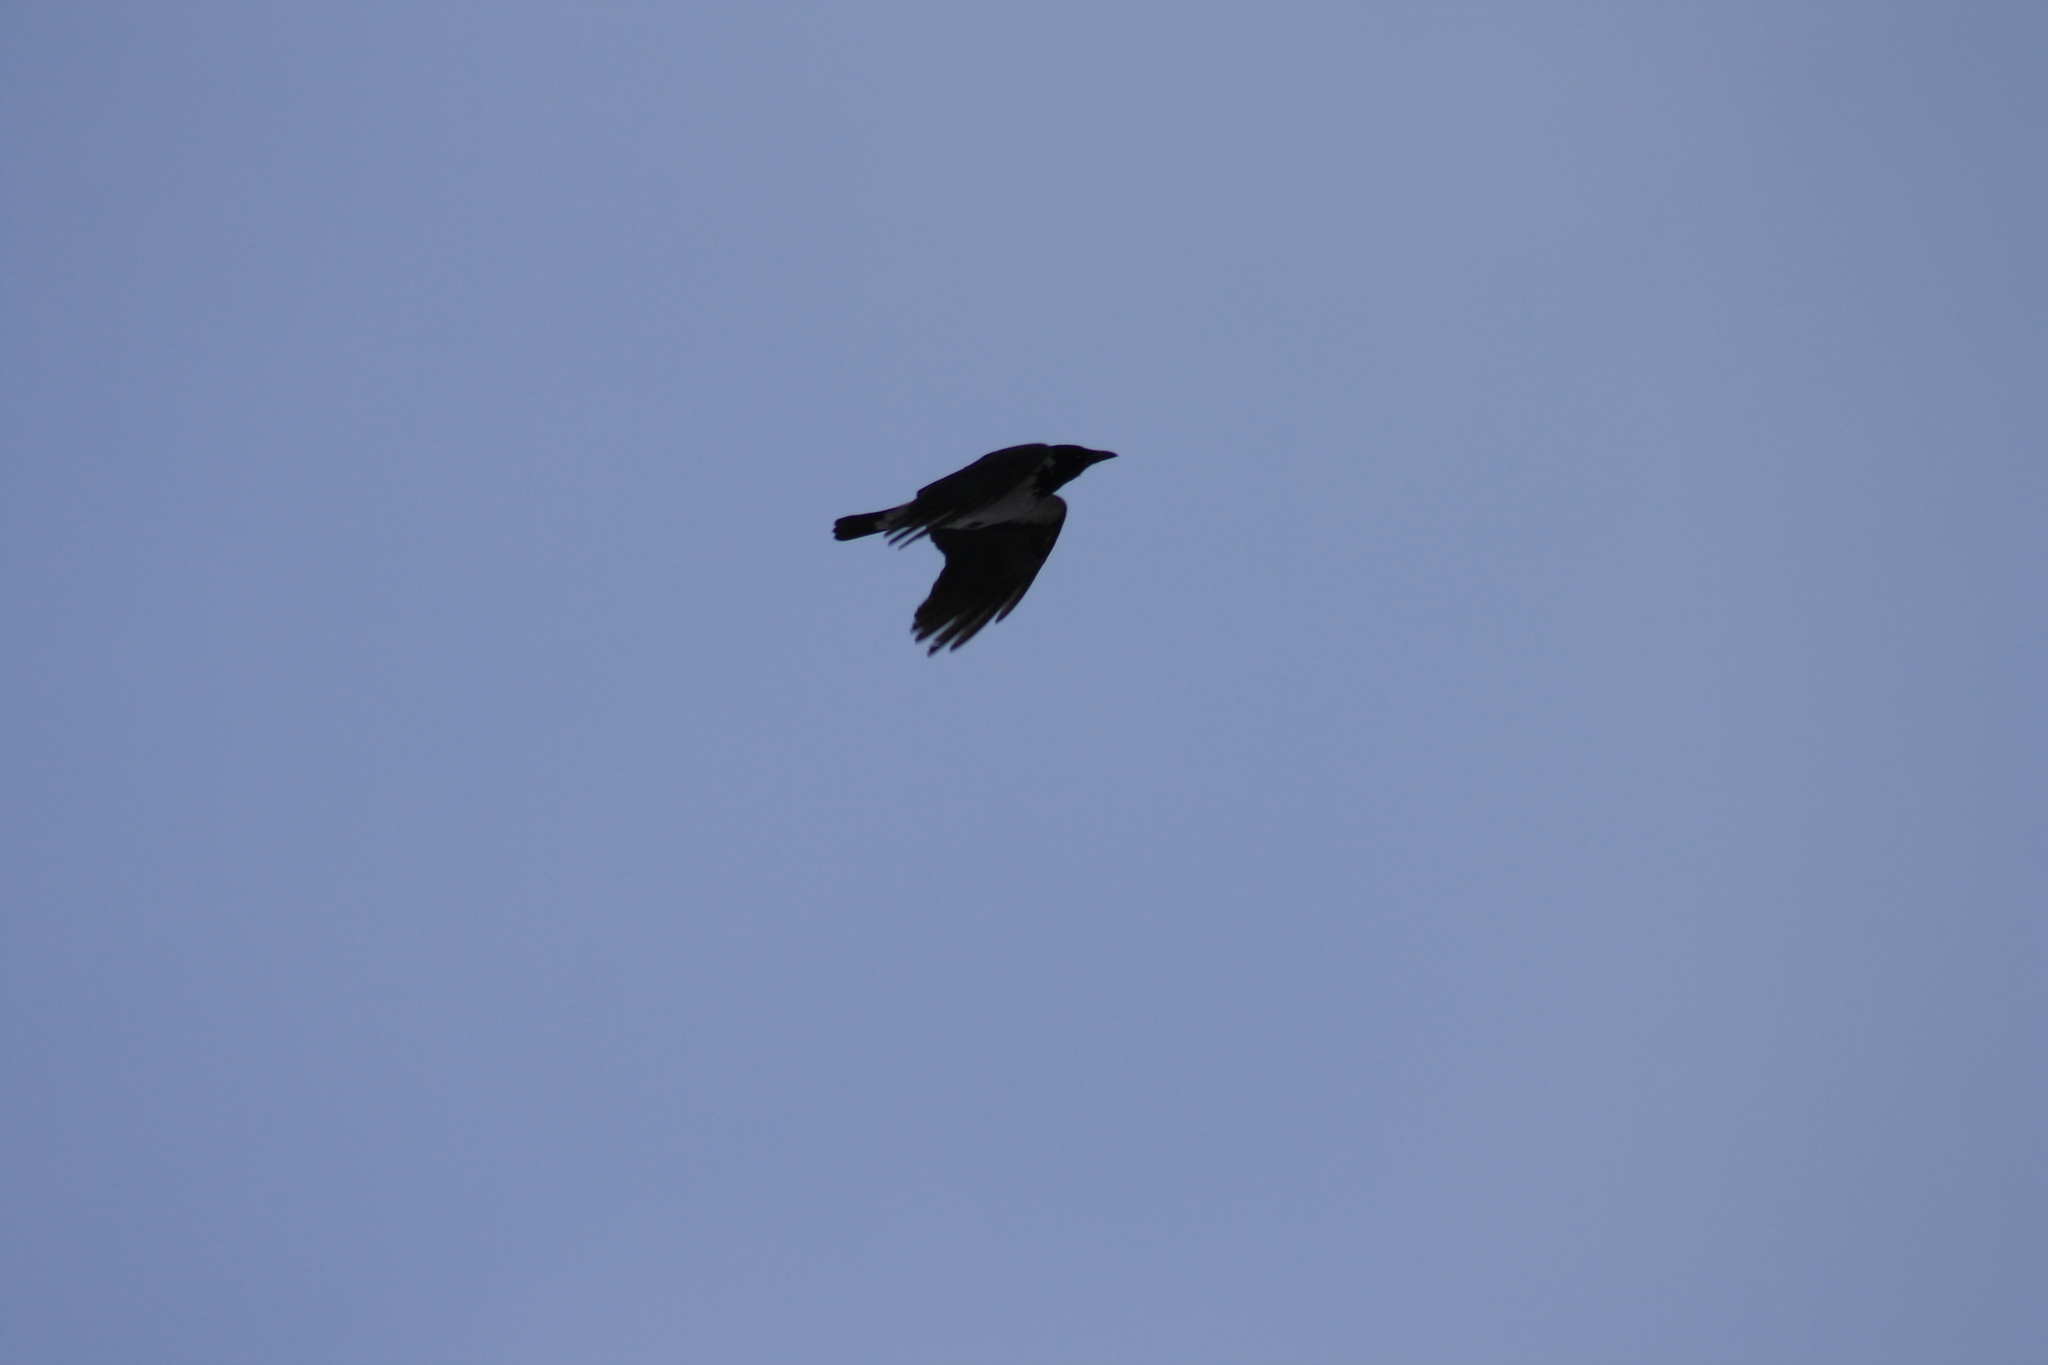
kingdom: Animalia
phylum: Chordata
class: Aves
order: Passeriformes
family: Corvidae
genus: Corvus
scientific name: Corvus cornix
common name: Hooded crow
